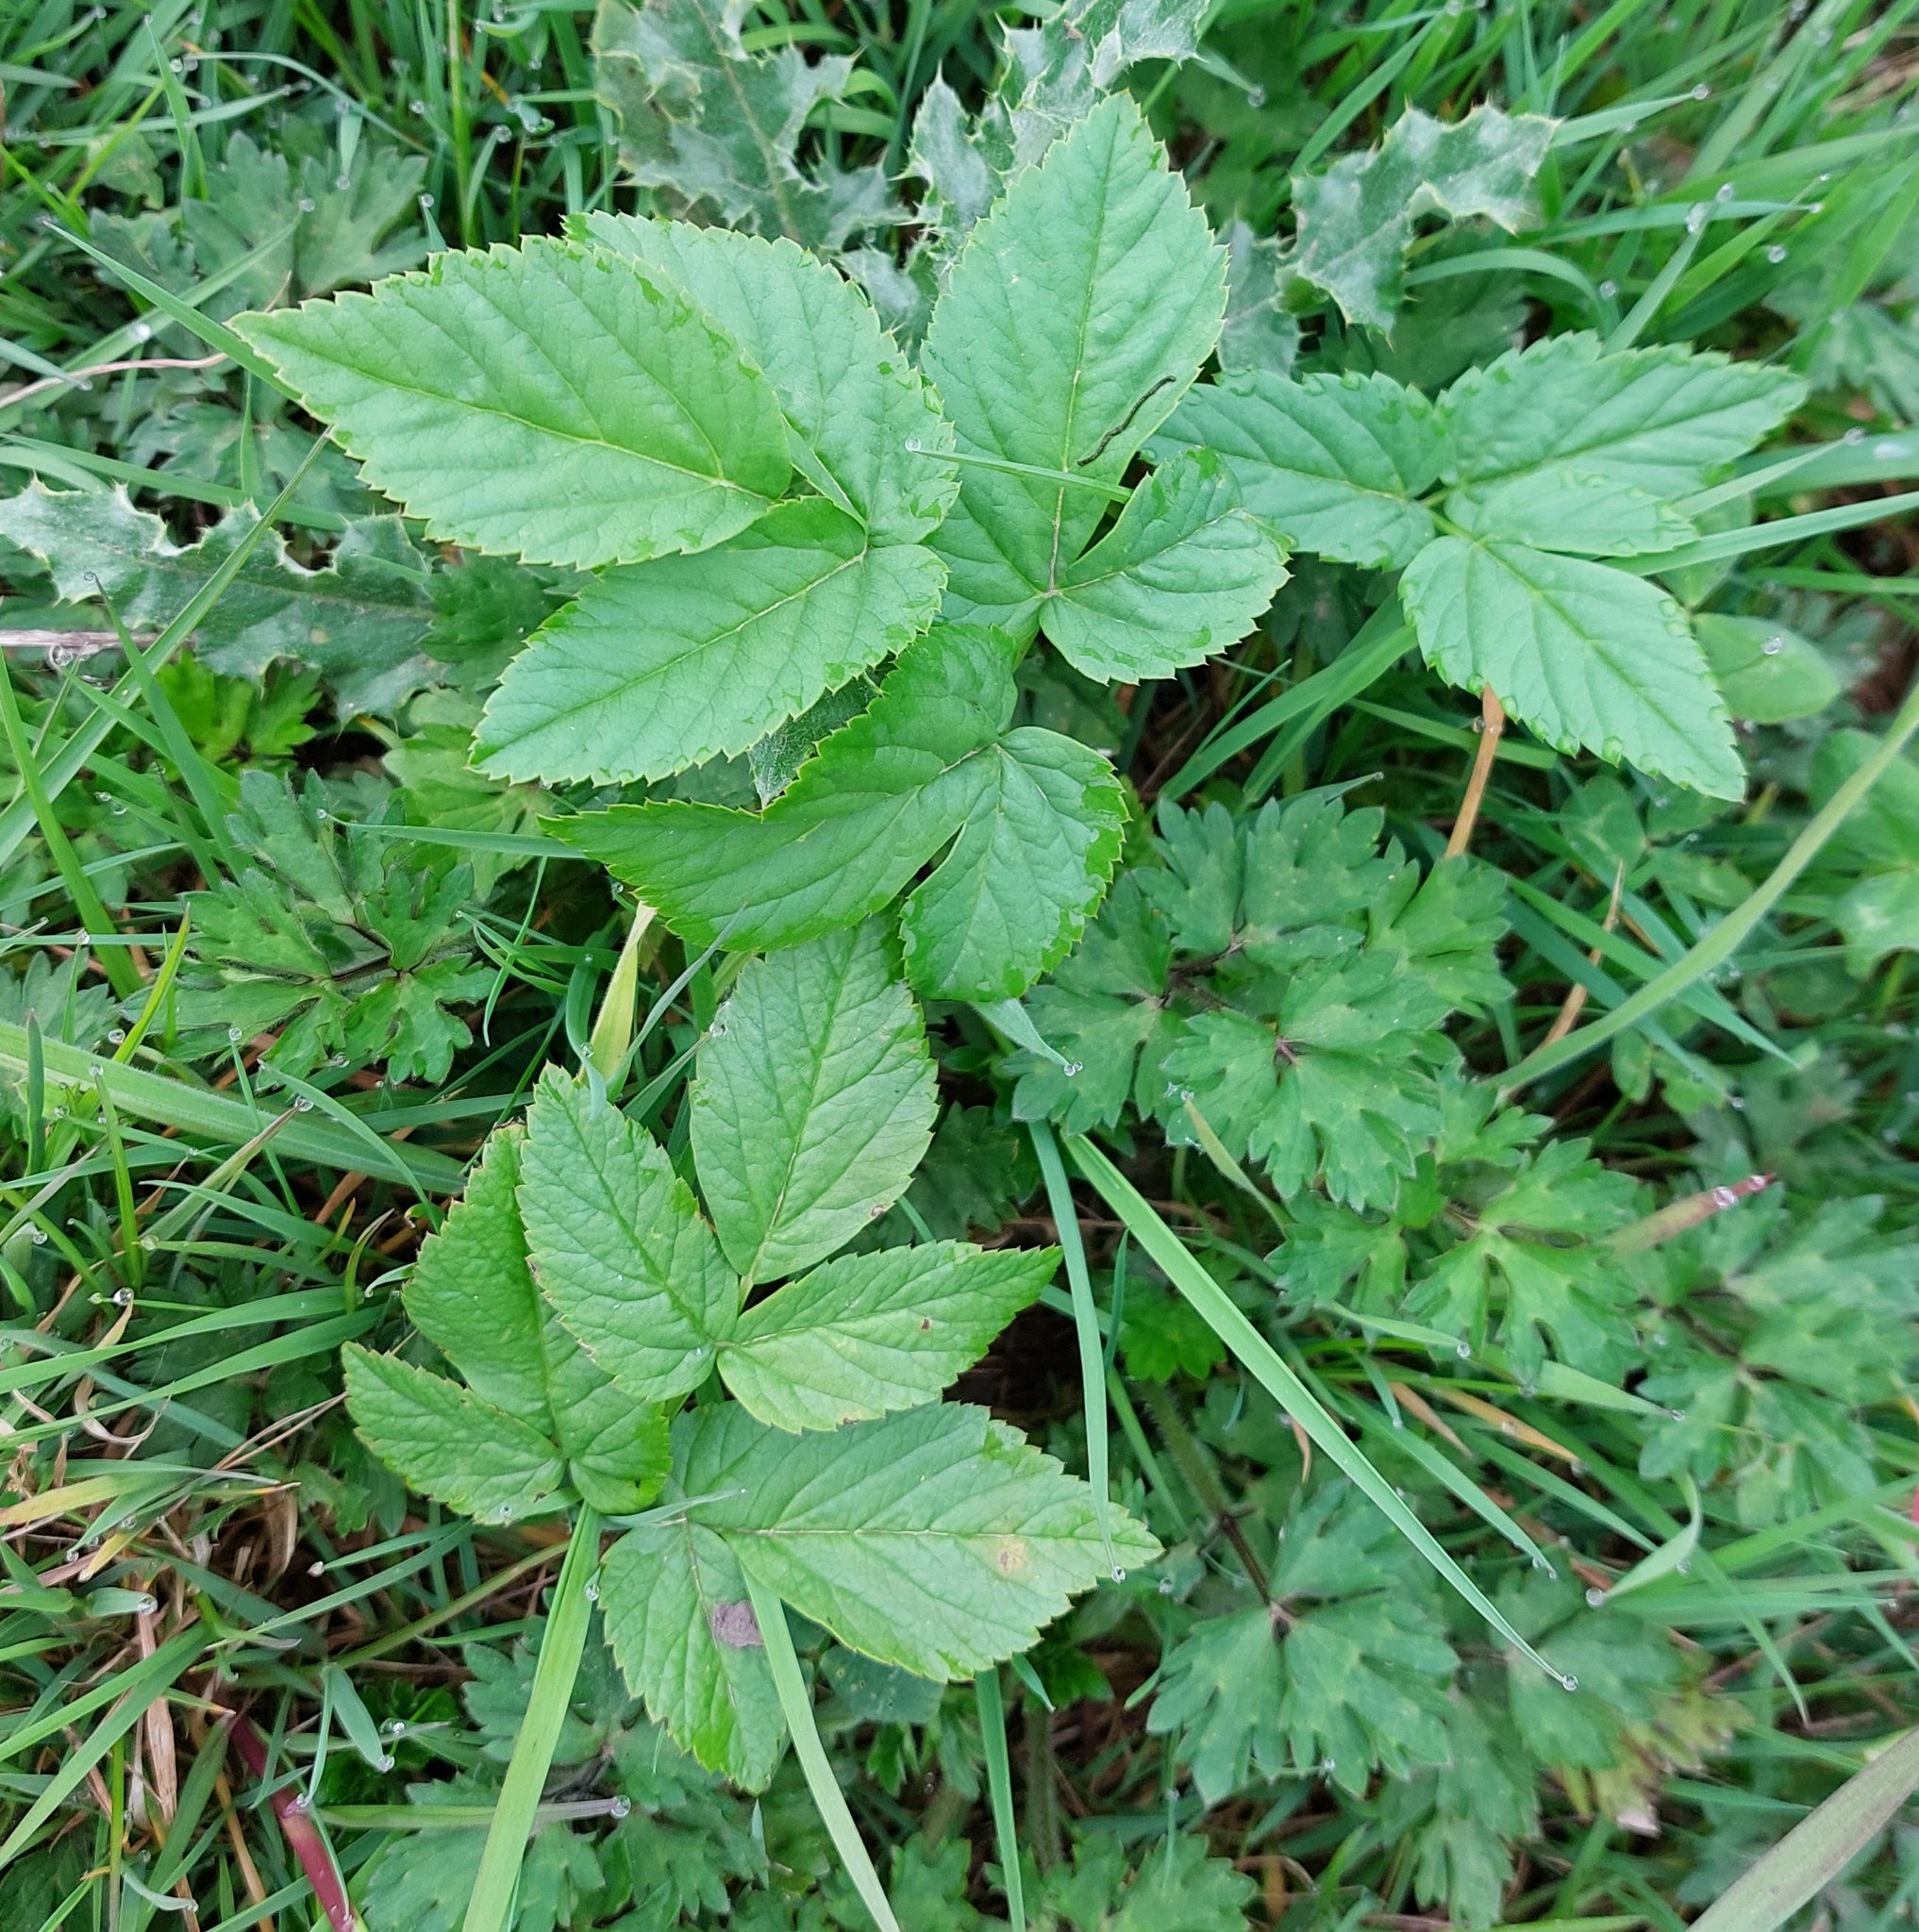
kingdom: Plantae
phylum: Tracheophyta
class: Magnoliopsida
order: Apiales
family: Apiaceae
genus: Aegopodium
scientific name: Aegopodium podagraria
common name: Ground-elder
